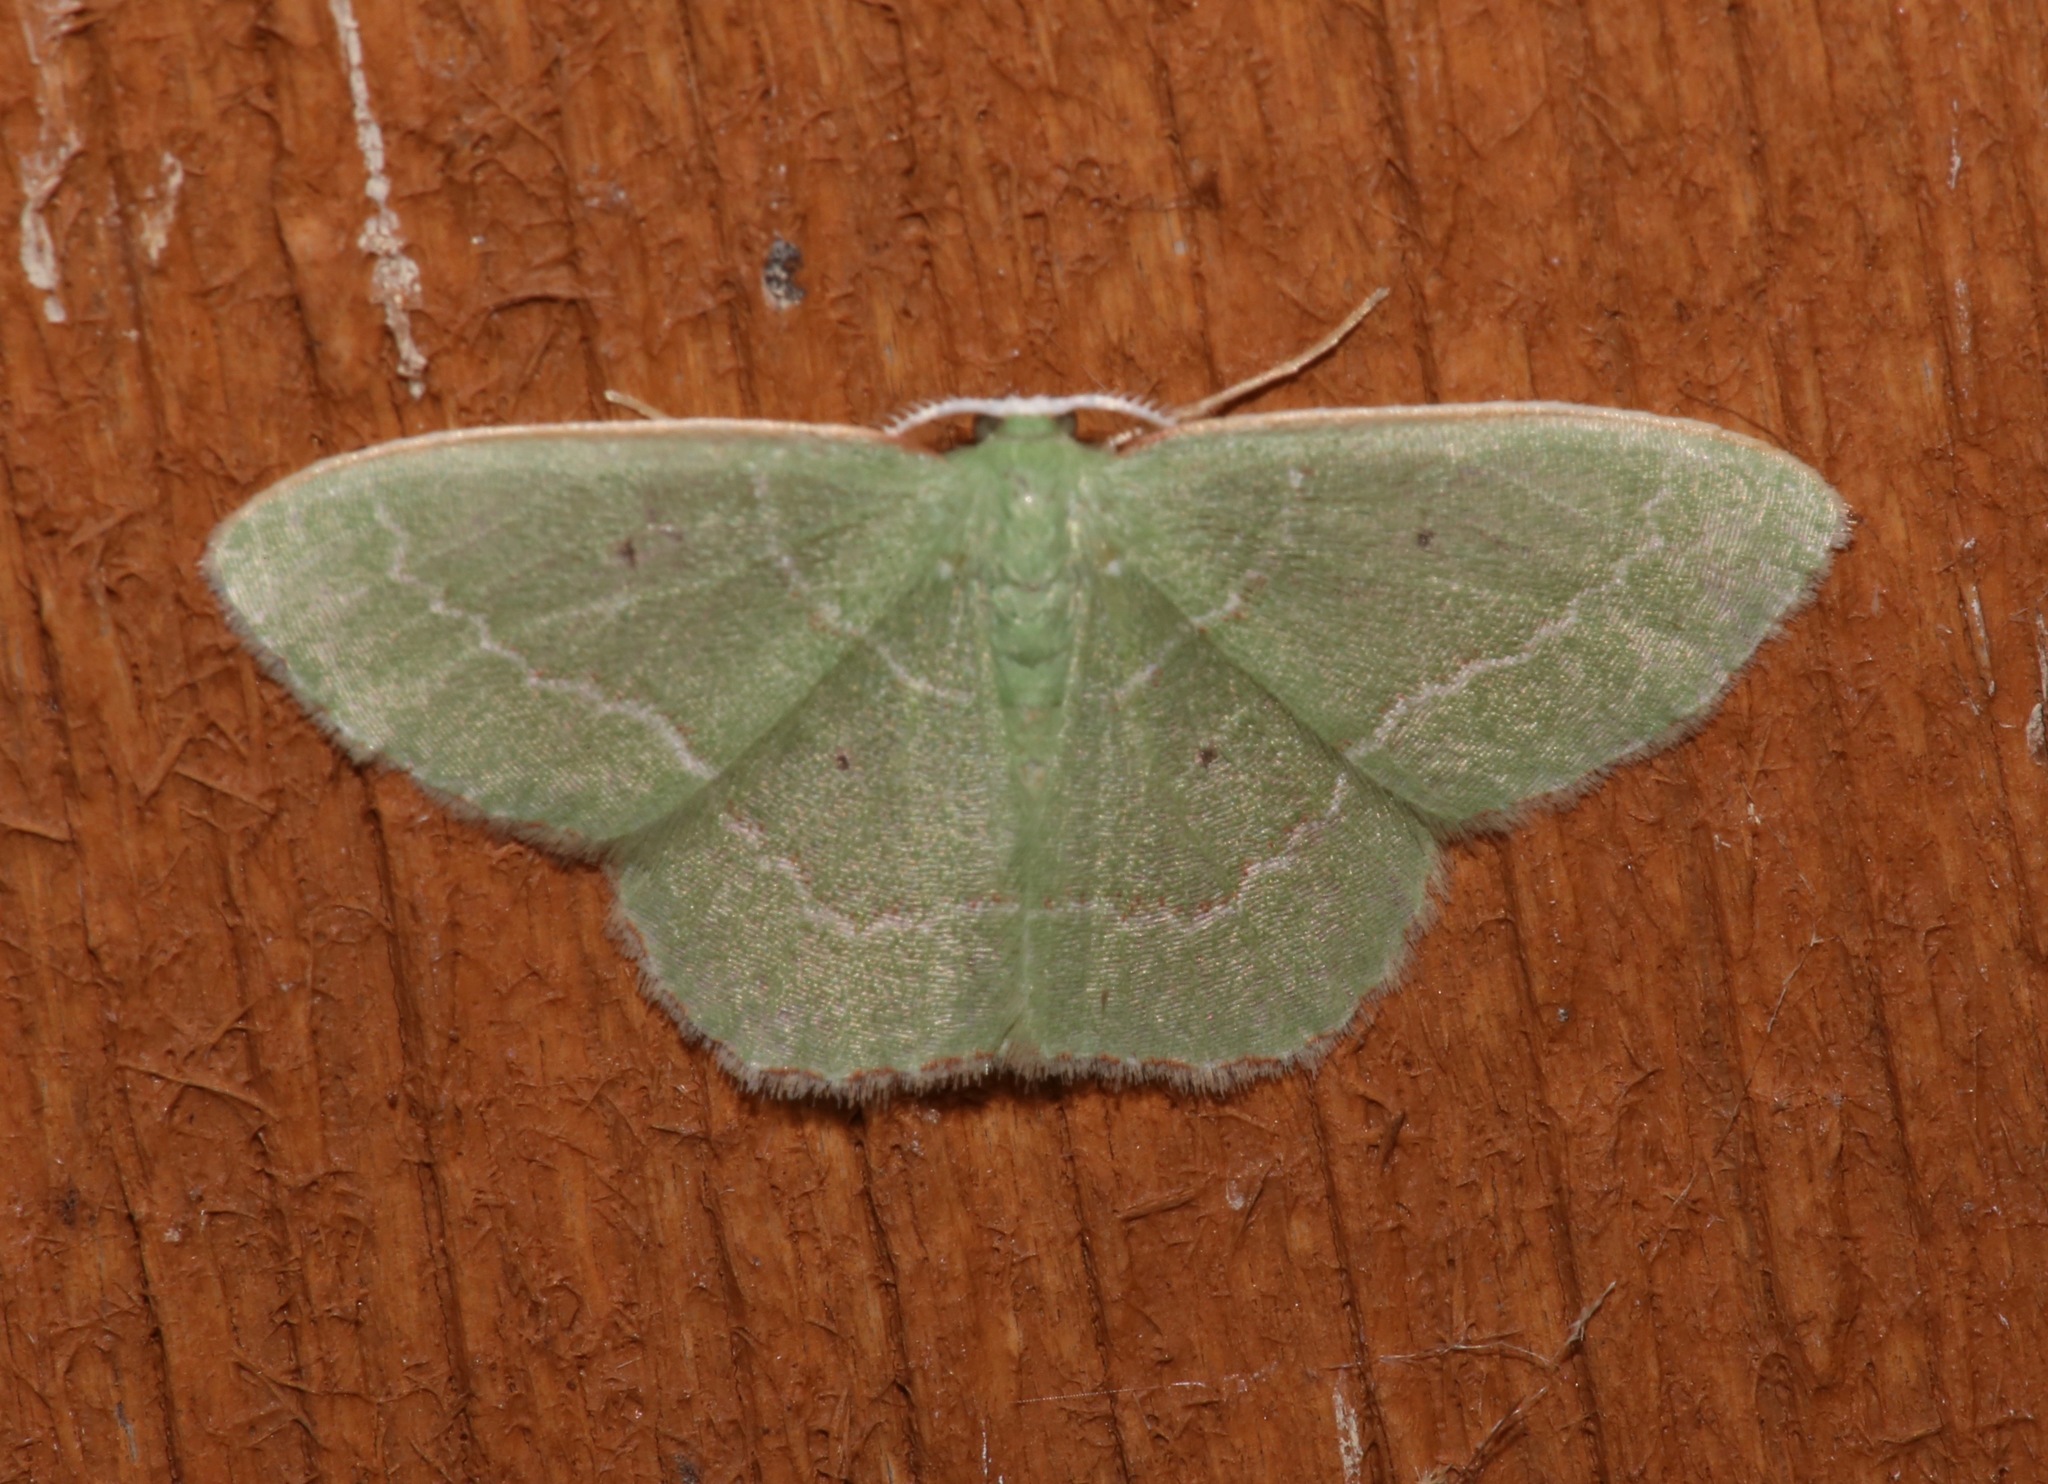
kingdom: Animalia
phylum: Arthropoda
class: Insecta
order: Lepidoptera
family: Geometridae
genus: Nemoria
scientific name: Nemoria elfa
